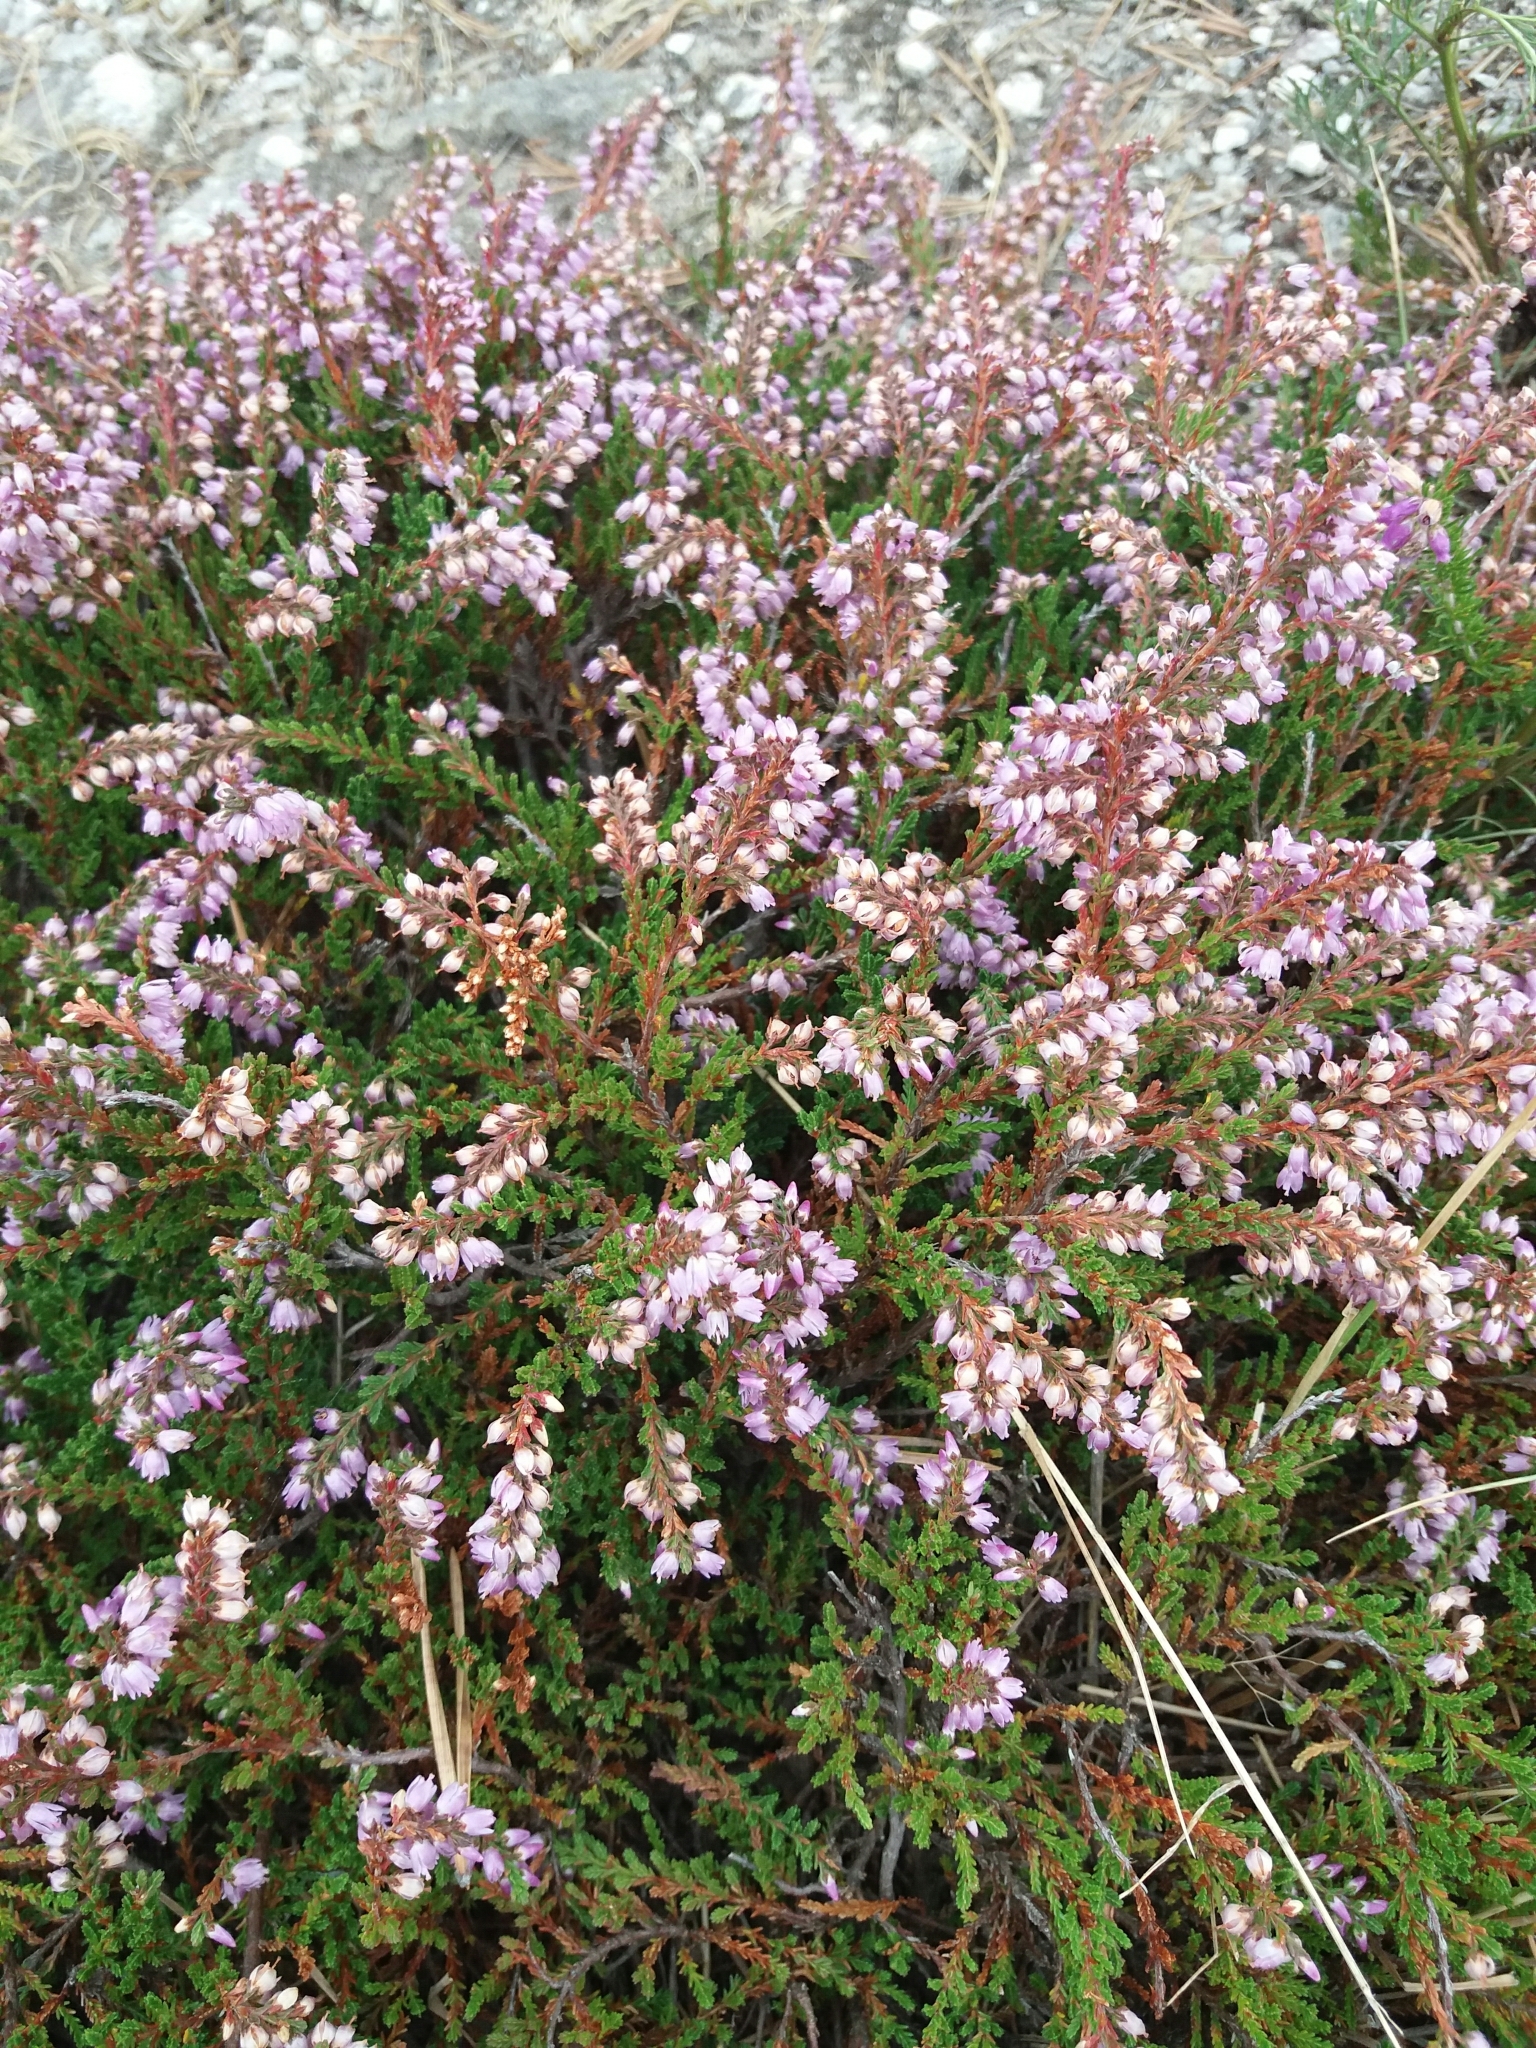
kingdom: Plantae
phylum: Tracheophyta
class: Magnoliopsida
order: Ericales
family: Ericaceae
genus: Calluna
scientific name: Calluna vulgaris
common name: Heather
